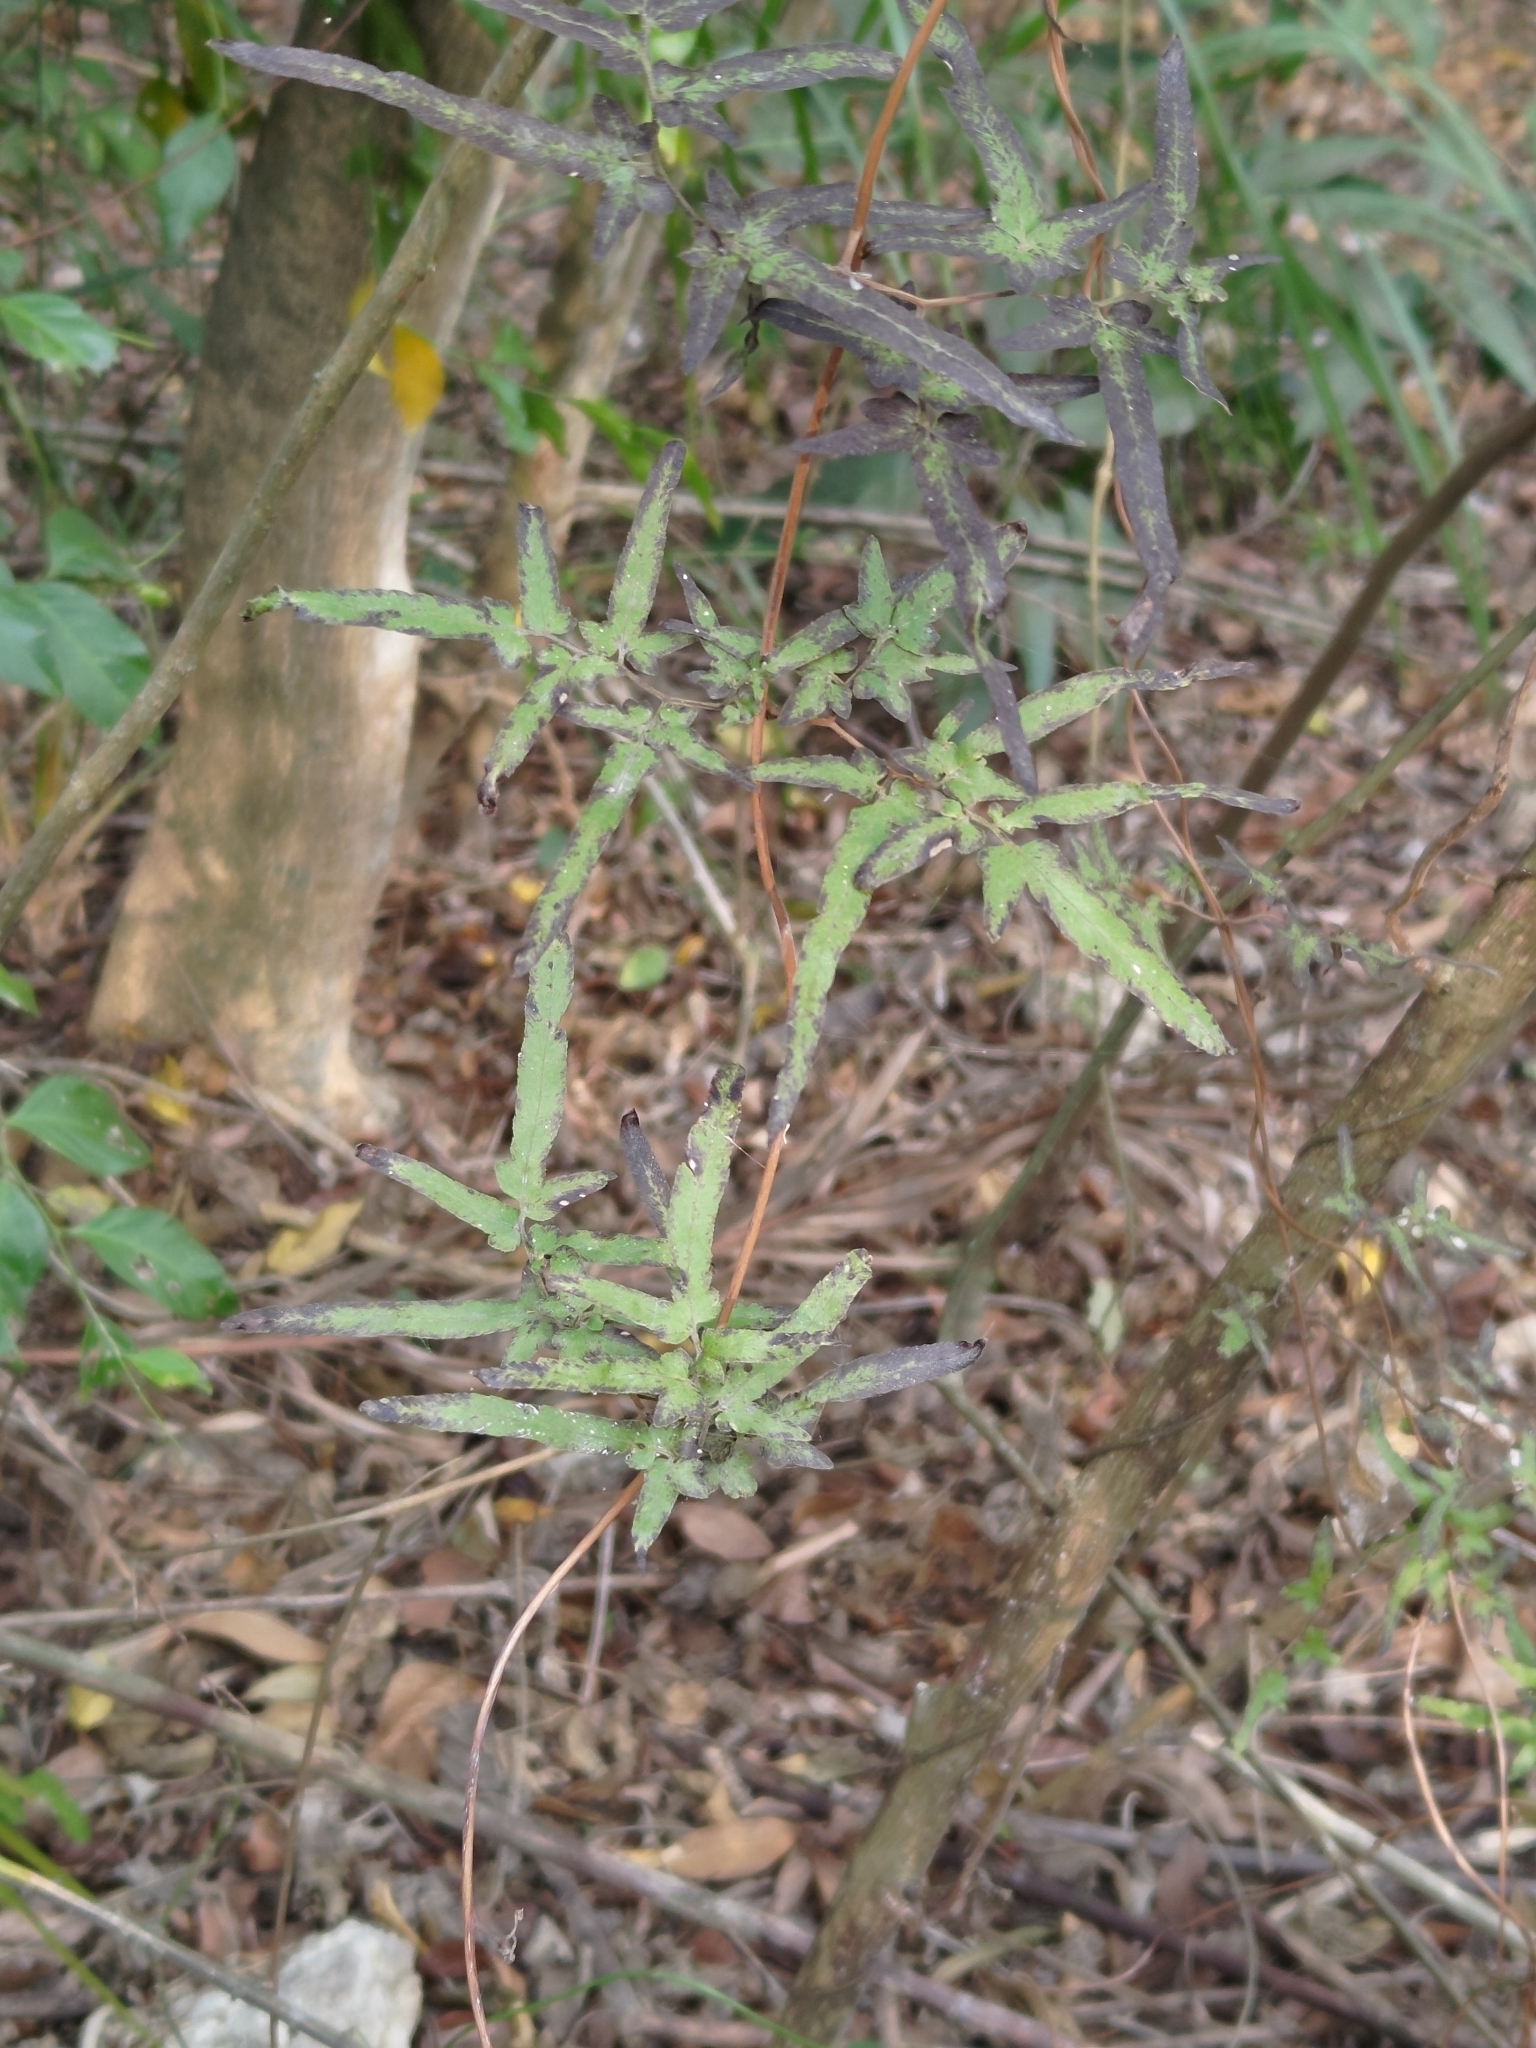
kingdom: Plantae
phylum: Tracheophyta
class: Polypodiopsida
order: Schizaeales
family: Lygodiaceae
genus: Lygodium
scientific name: Lygodium japonicum
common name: Japanese climbing fern
